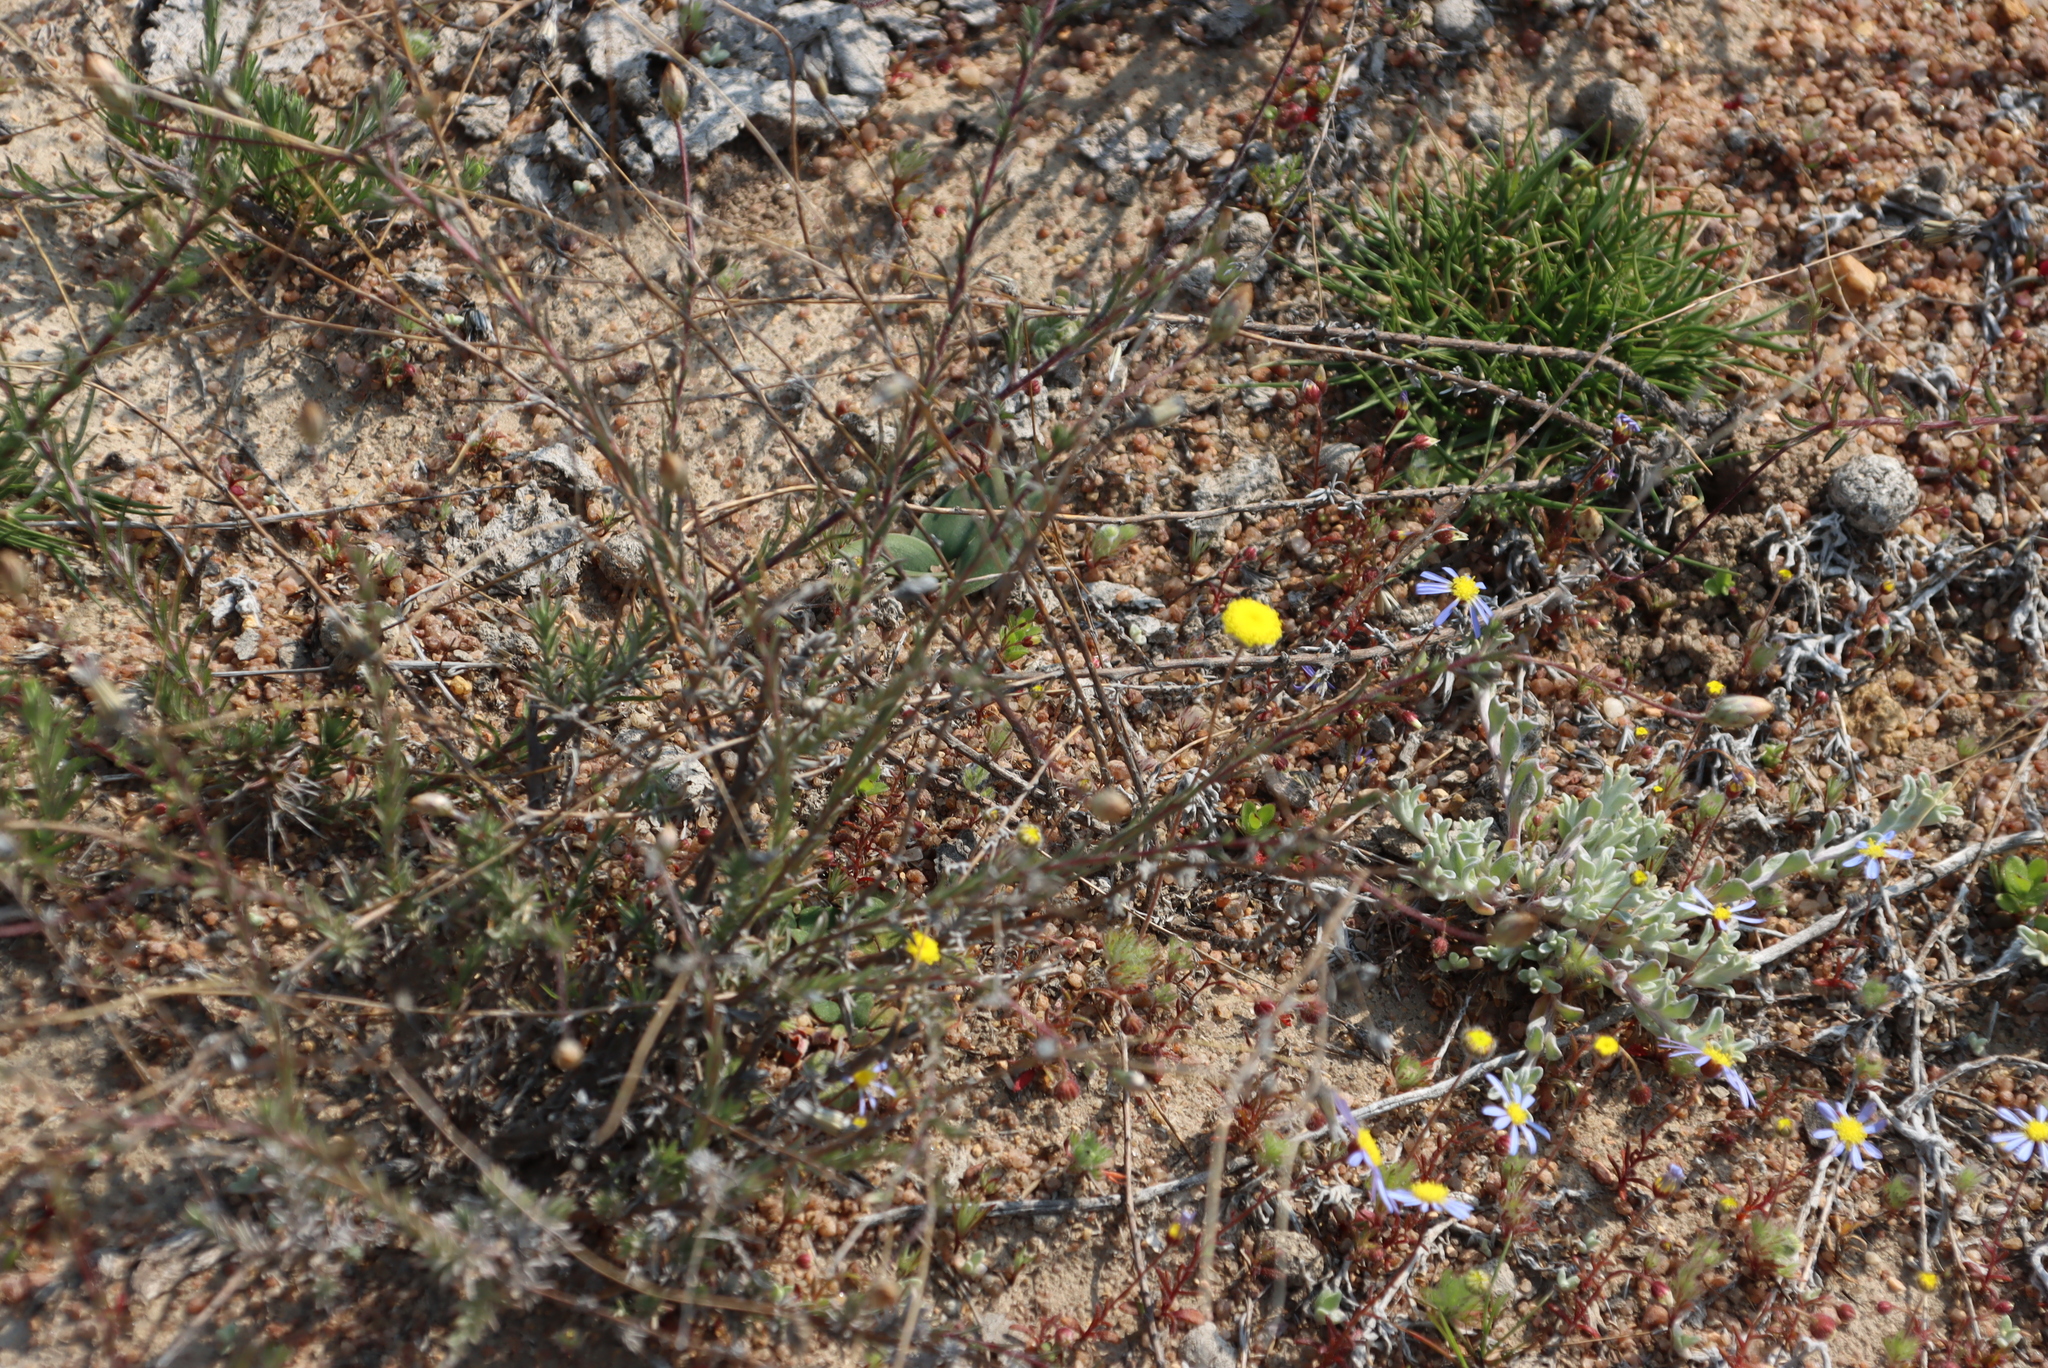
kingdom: Plantae
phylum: Tracheophyta
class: Magnoliopsida
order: Oxalidales
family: Oxalidaceae
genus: Oxalis
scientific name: Oxalis obtusa
